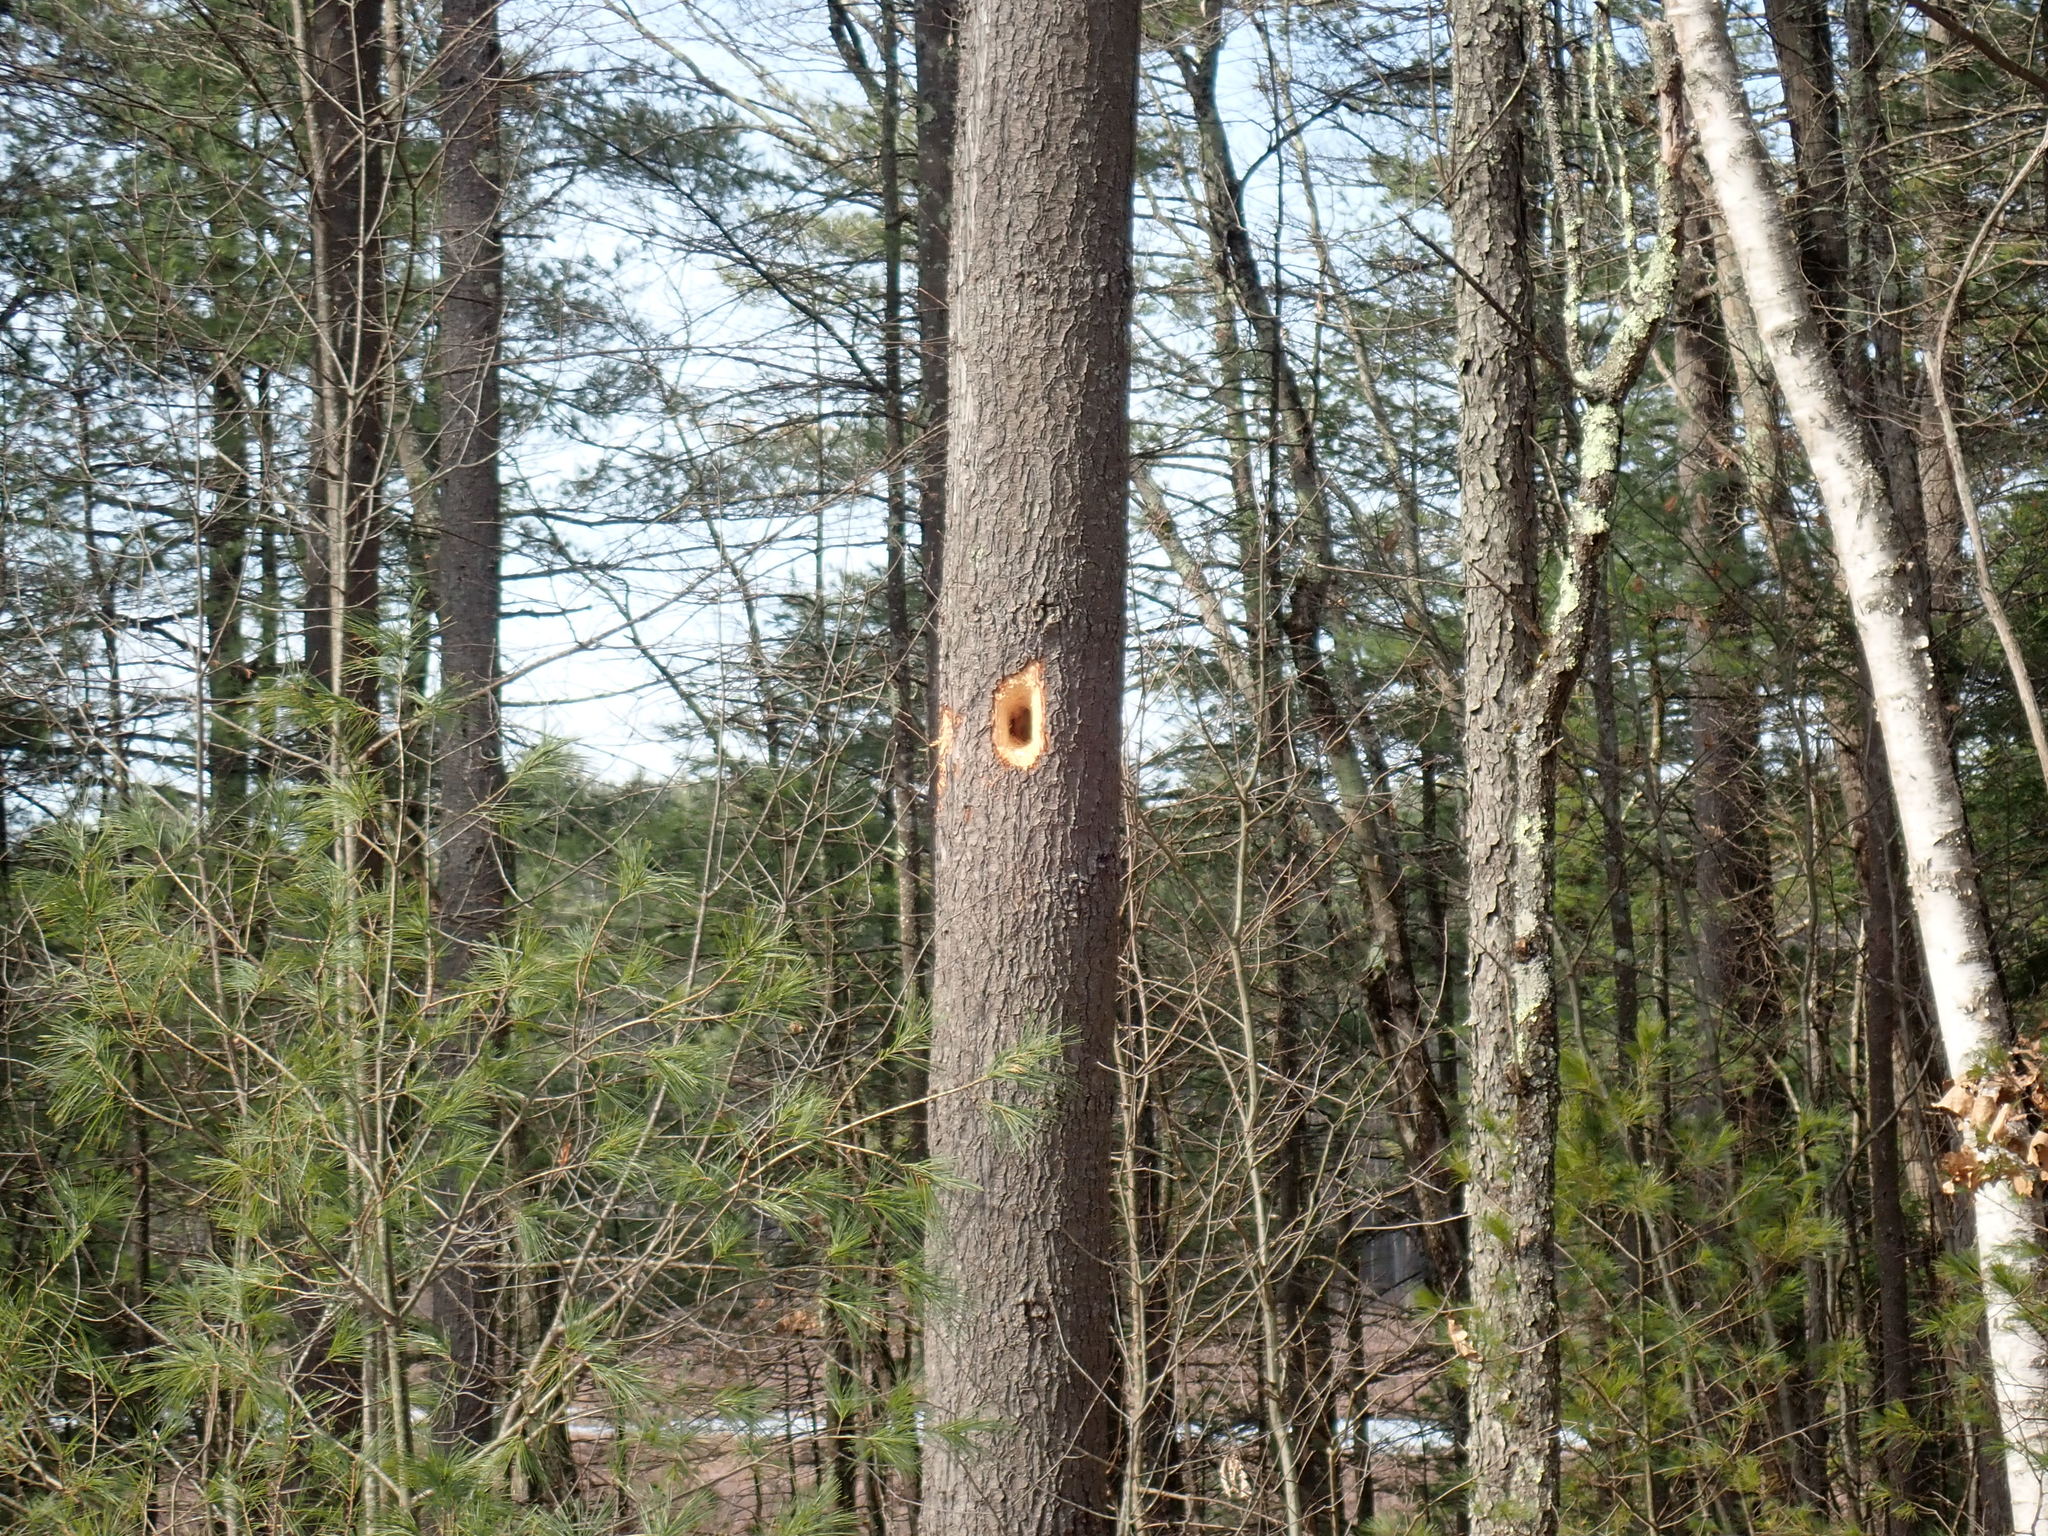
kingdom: Animalia
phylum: Chordata
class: Aves
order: Piciformes
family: Picidae
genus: Dryocopus
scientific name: Dryocopus pileatus
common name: Pileated woodpecker
